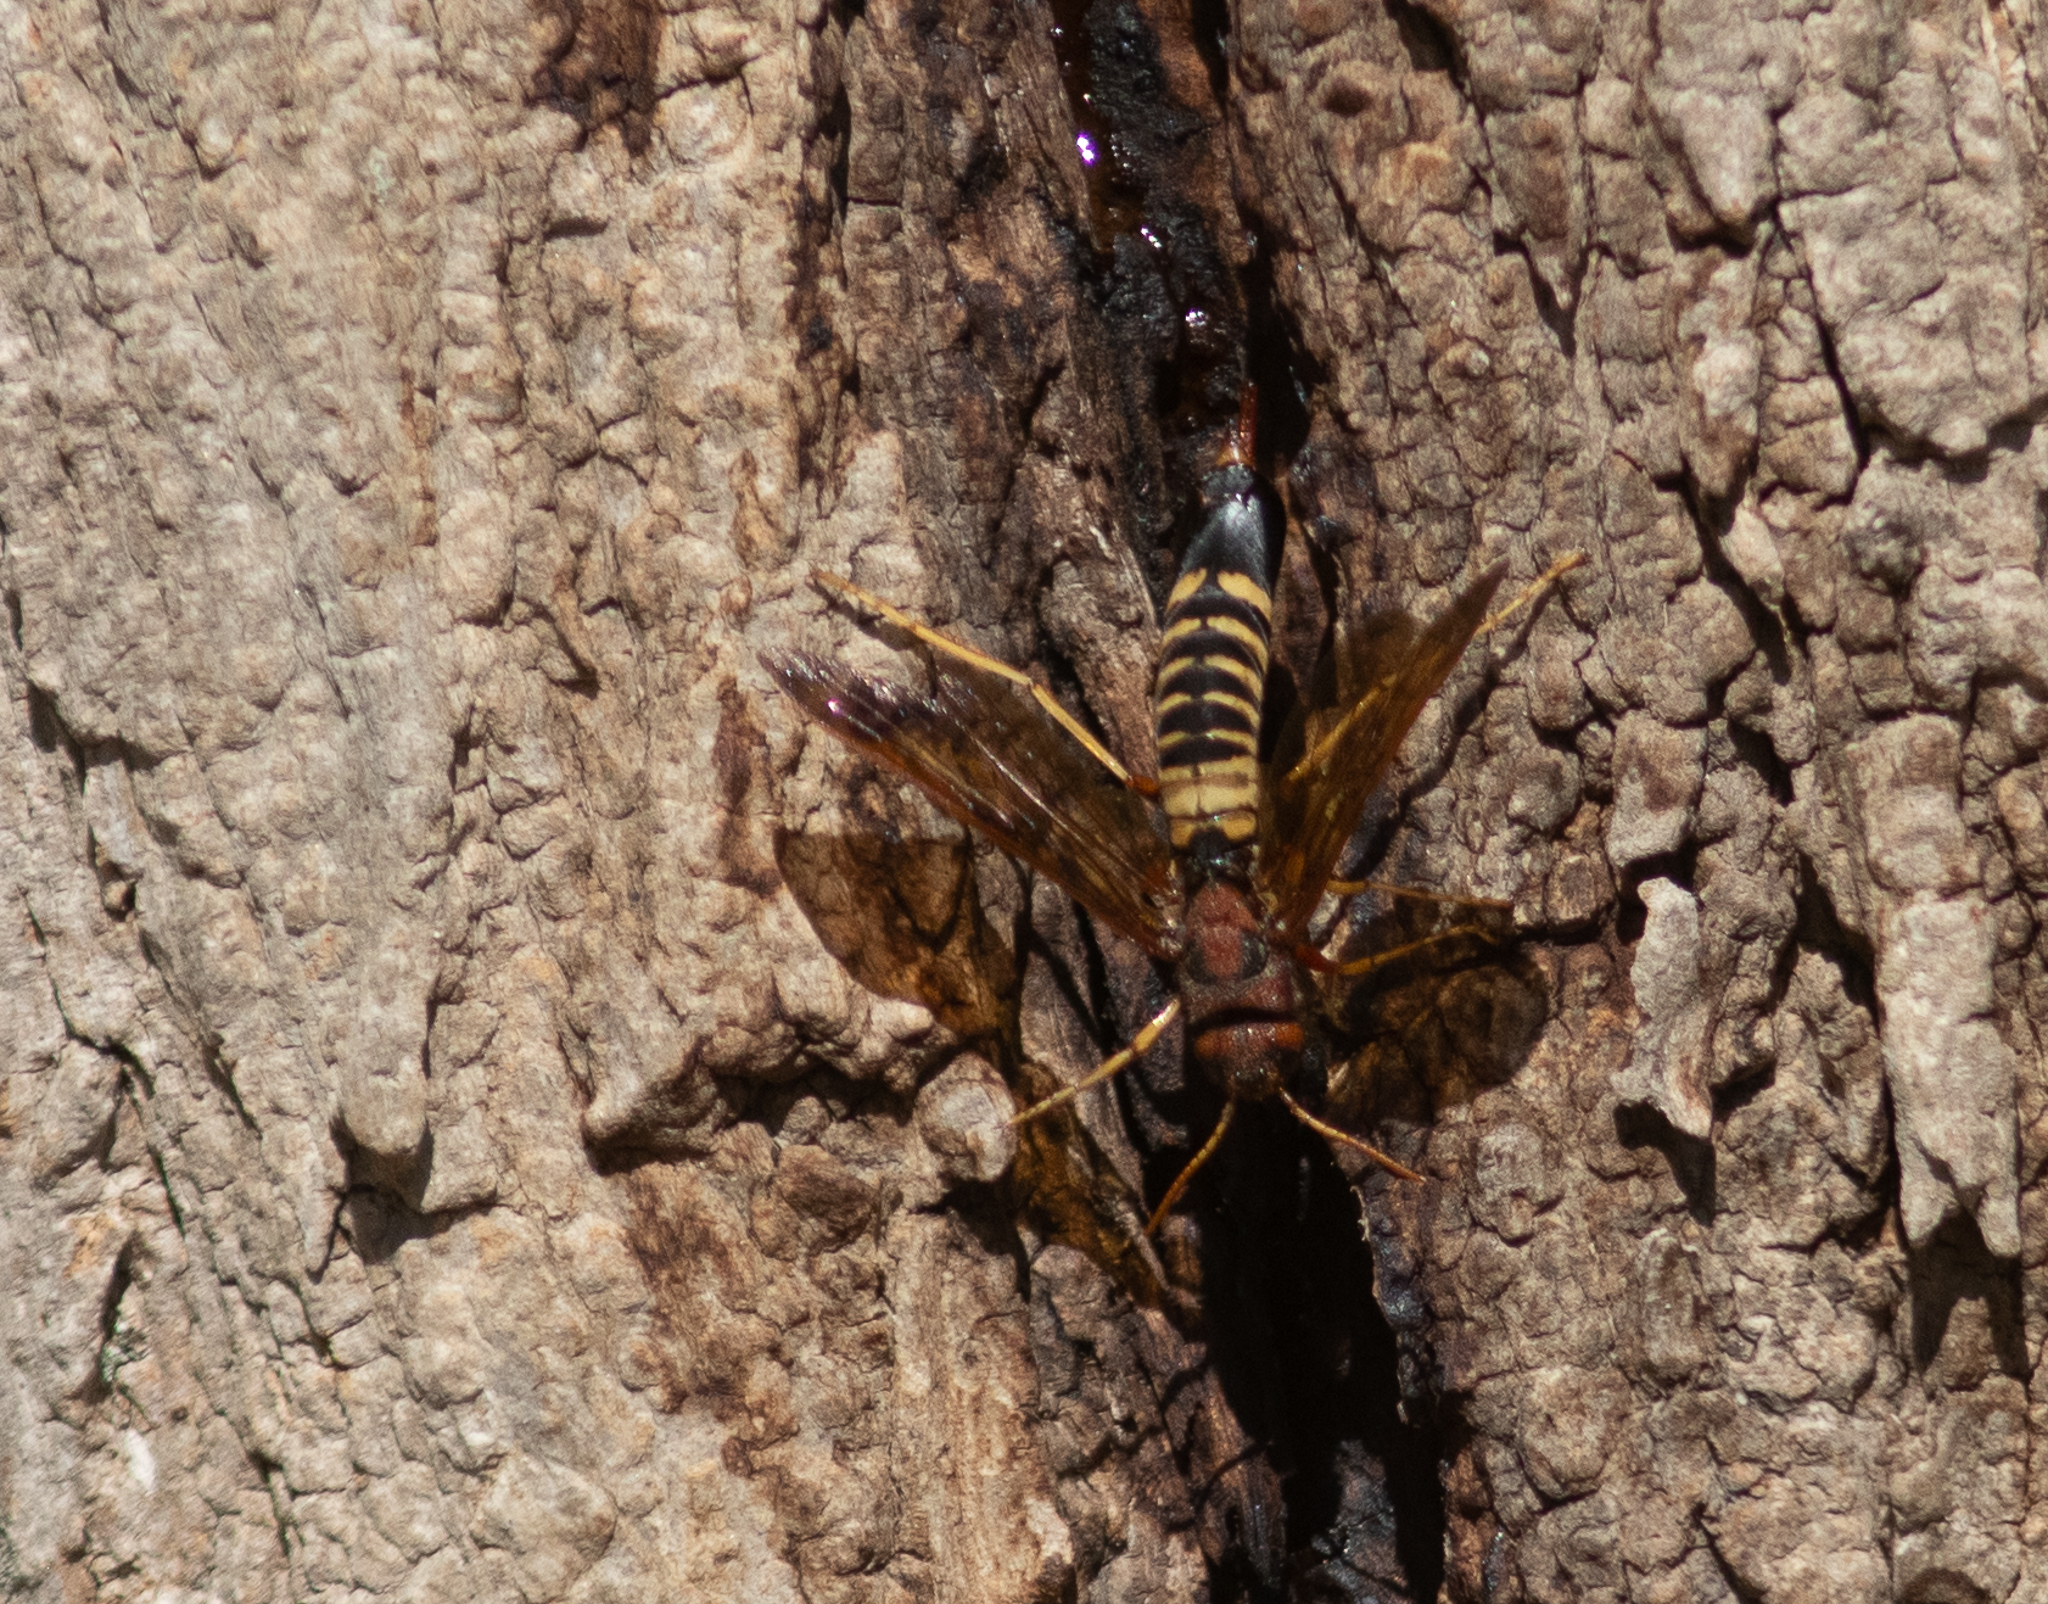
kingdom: Animalia
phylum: Arthropoda
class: Insecta
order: Hymenoptera
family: Siricidae
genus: Tremex
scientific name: Tremex columba
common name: Wasp
